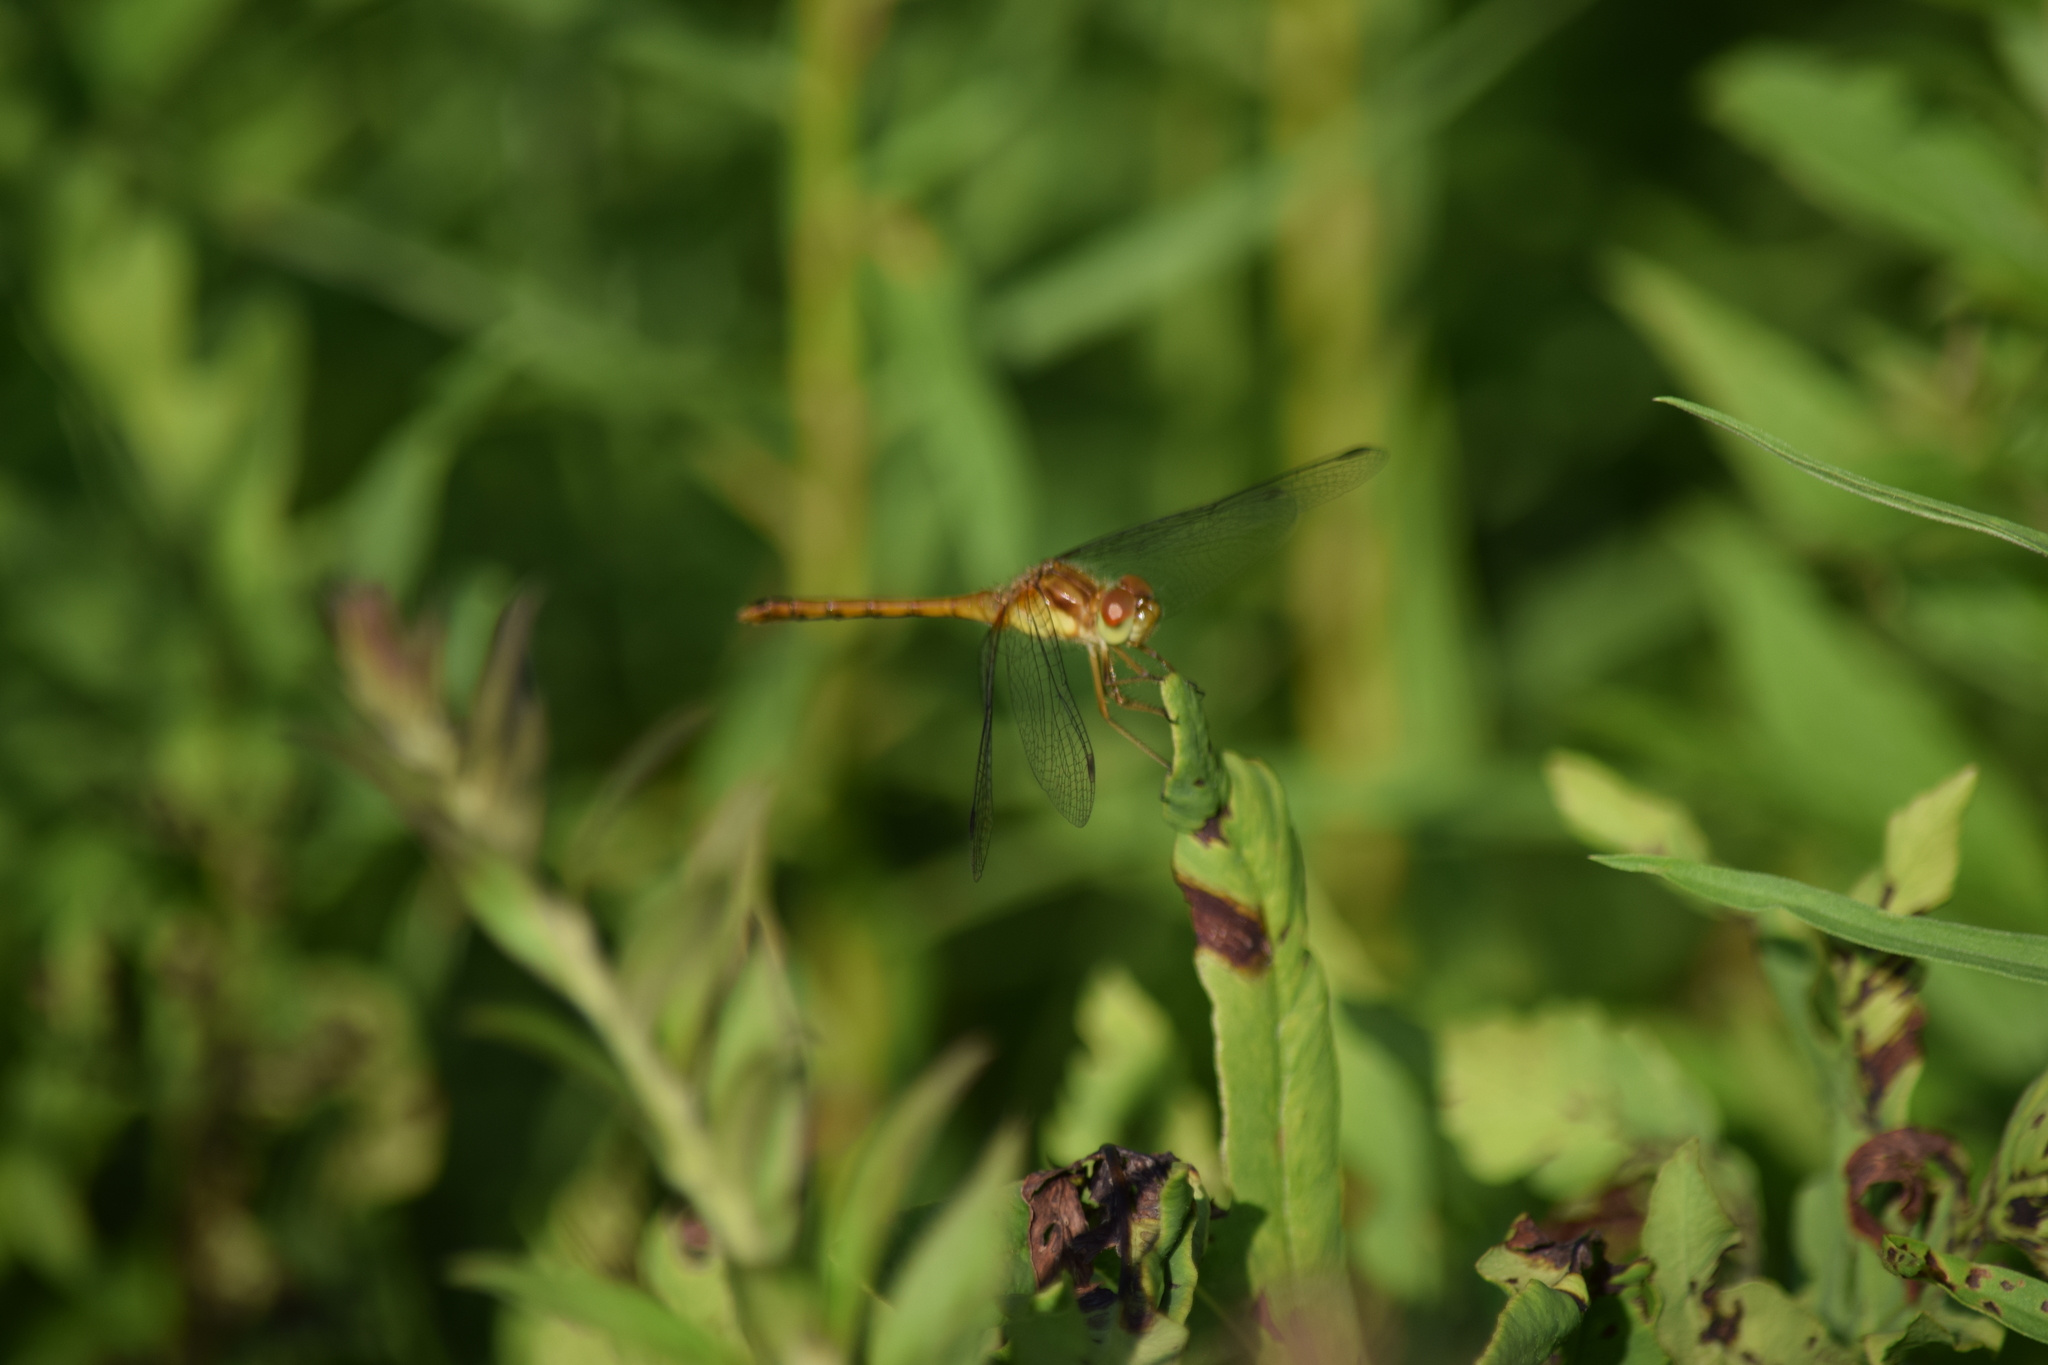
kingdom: Animalia
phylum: Arthropoda
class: Insecta
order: Odonata
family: Libellulidae
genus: Sympetrum
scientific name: Sympetrum vicinum
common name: Autumn meadowhawk
